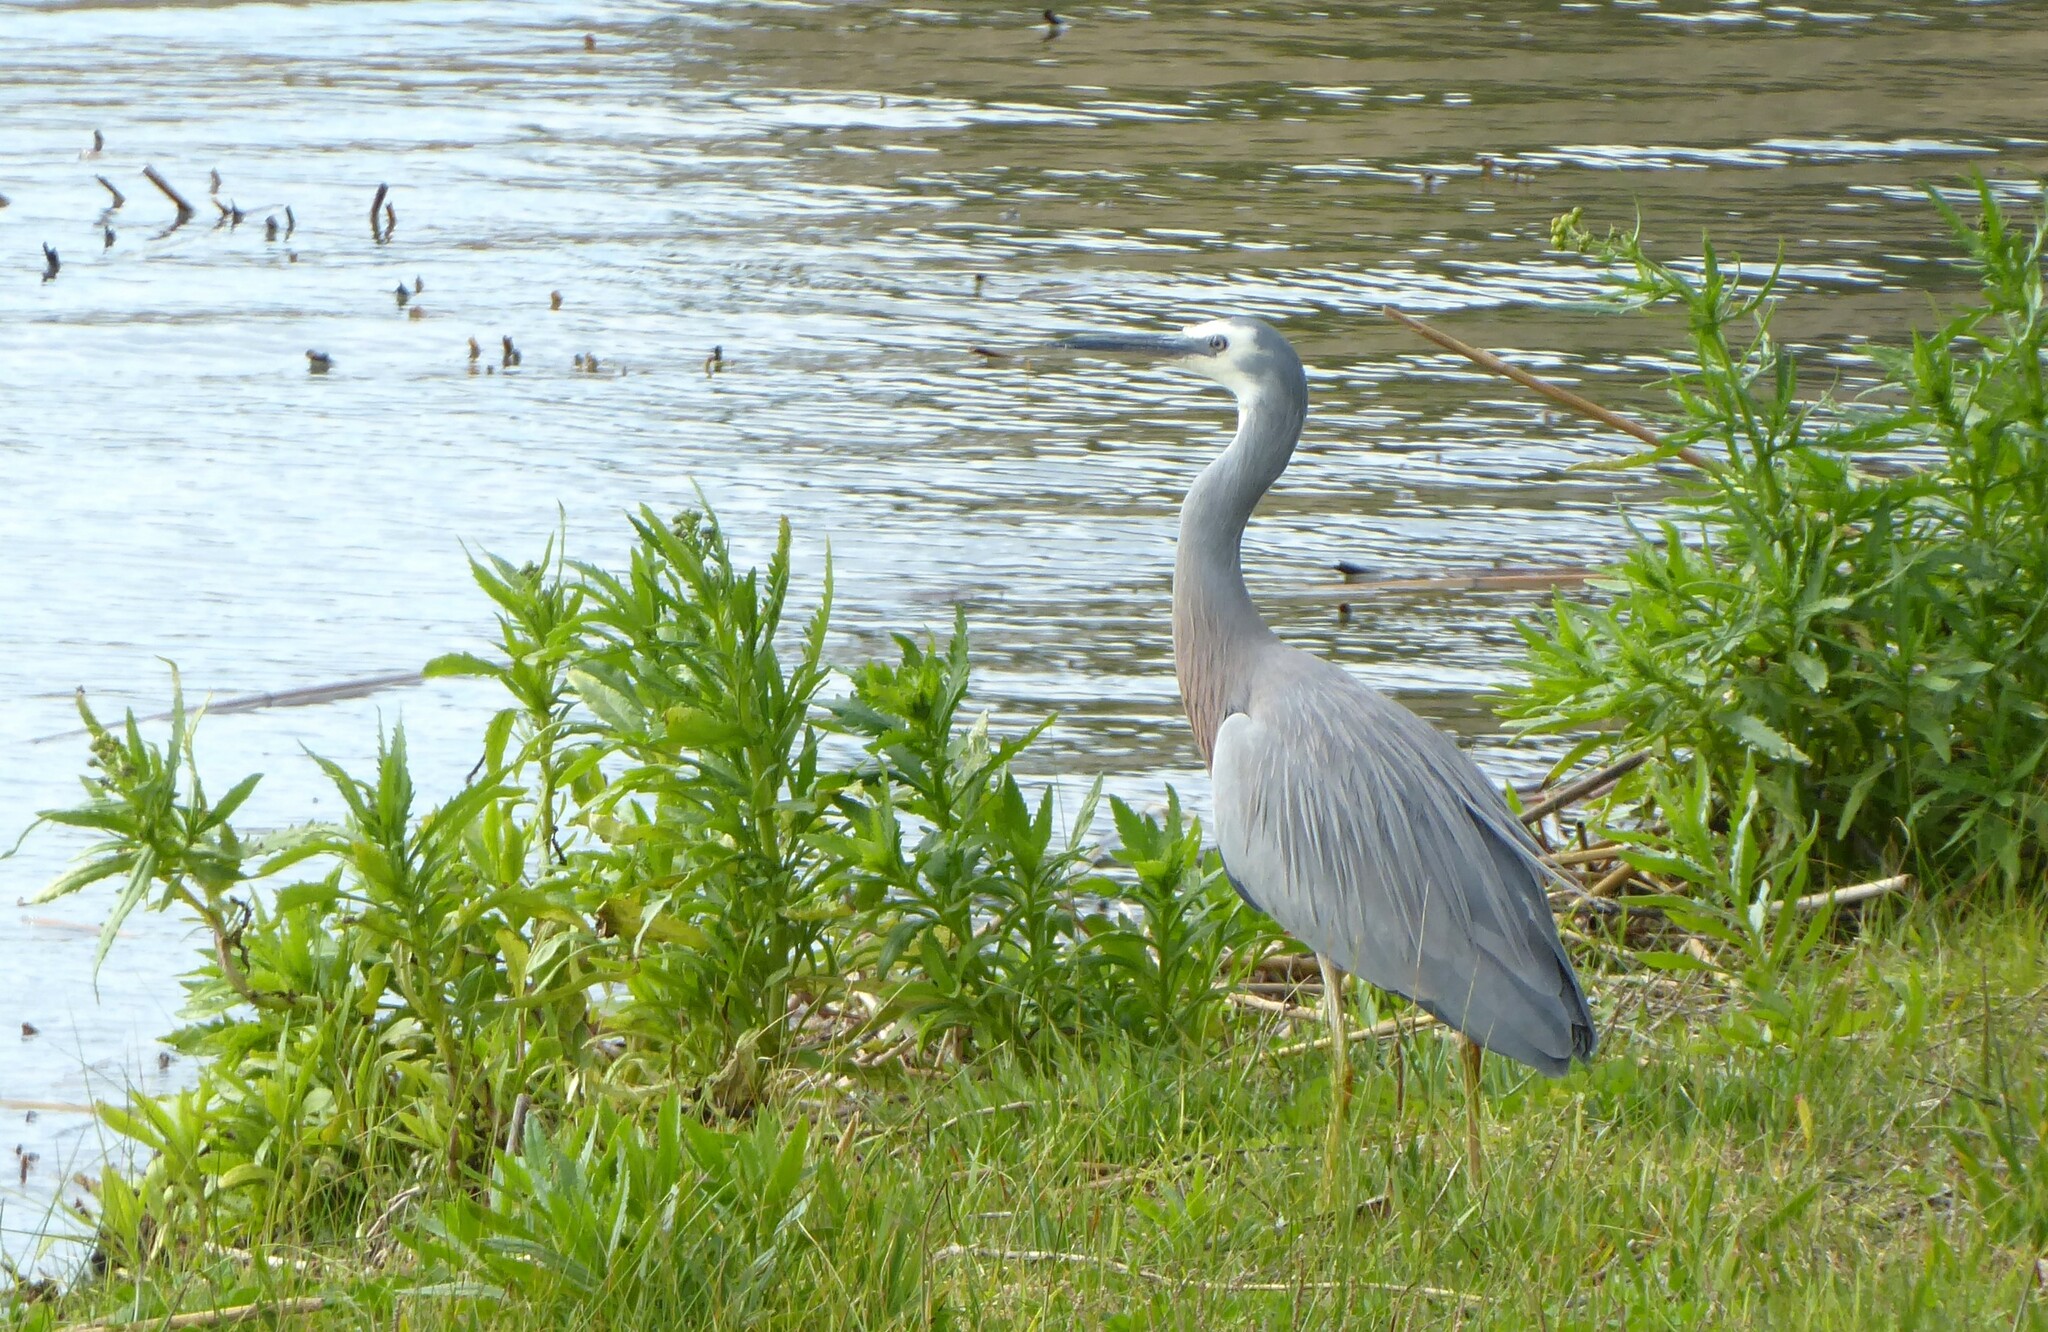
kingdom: Animalia
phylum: Chordata
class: Aves
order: Pelecaniformes
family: Ardeidae
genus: Egretta
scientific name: Egretta novaehollandiae
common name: White-faced heron
